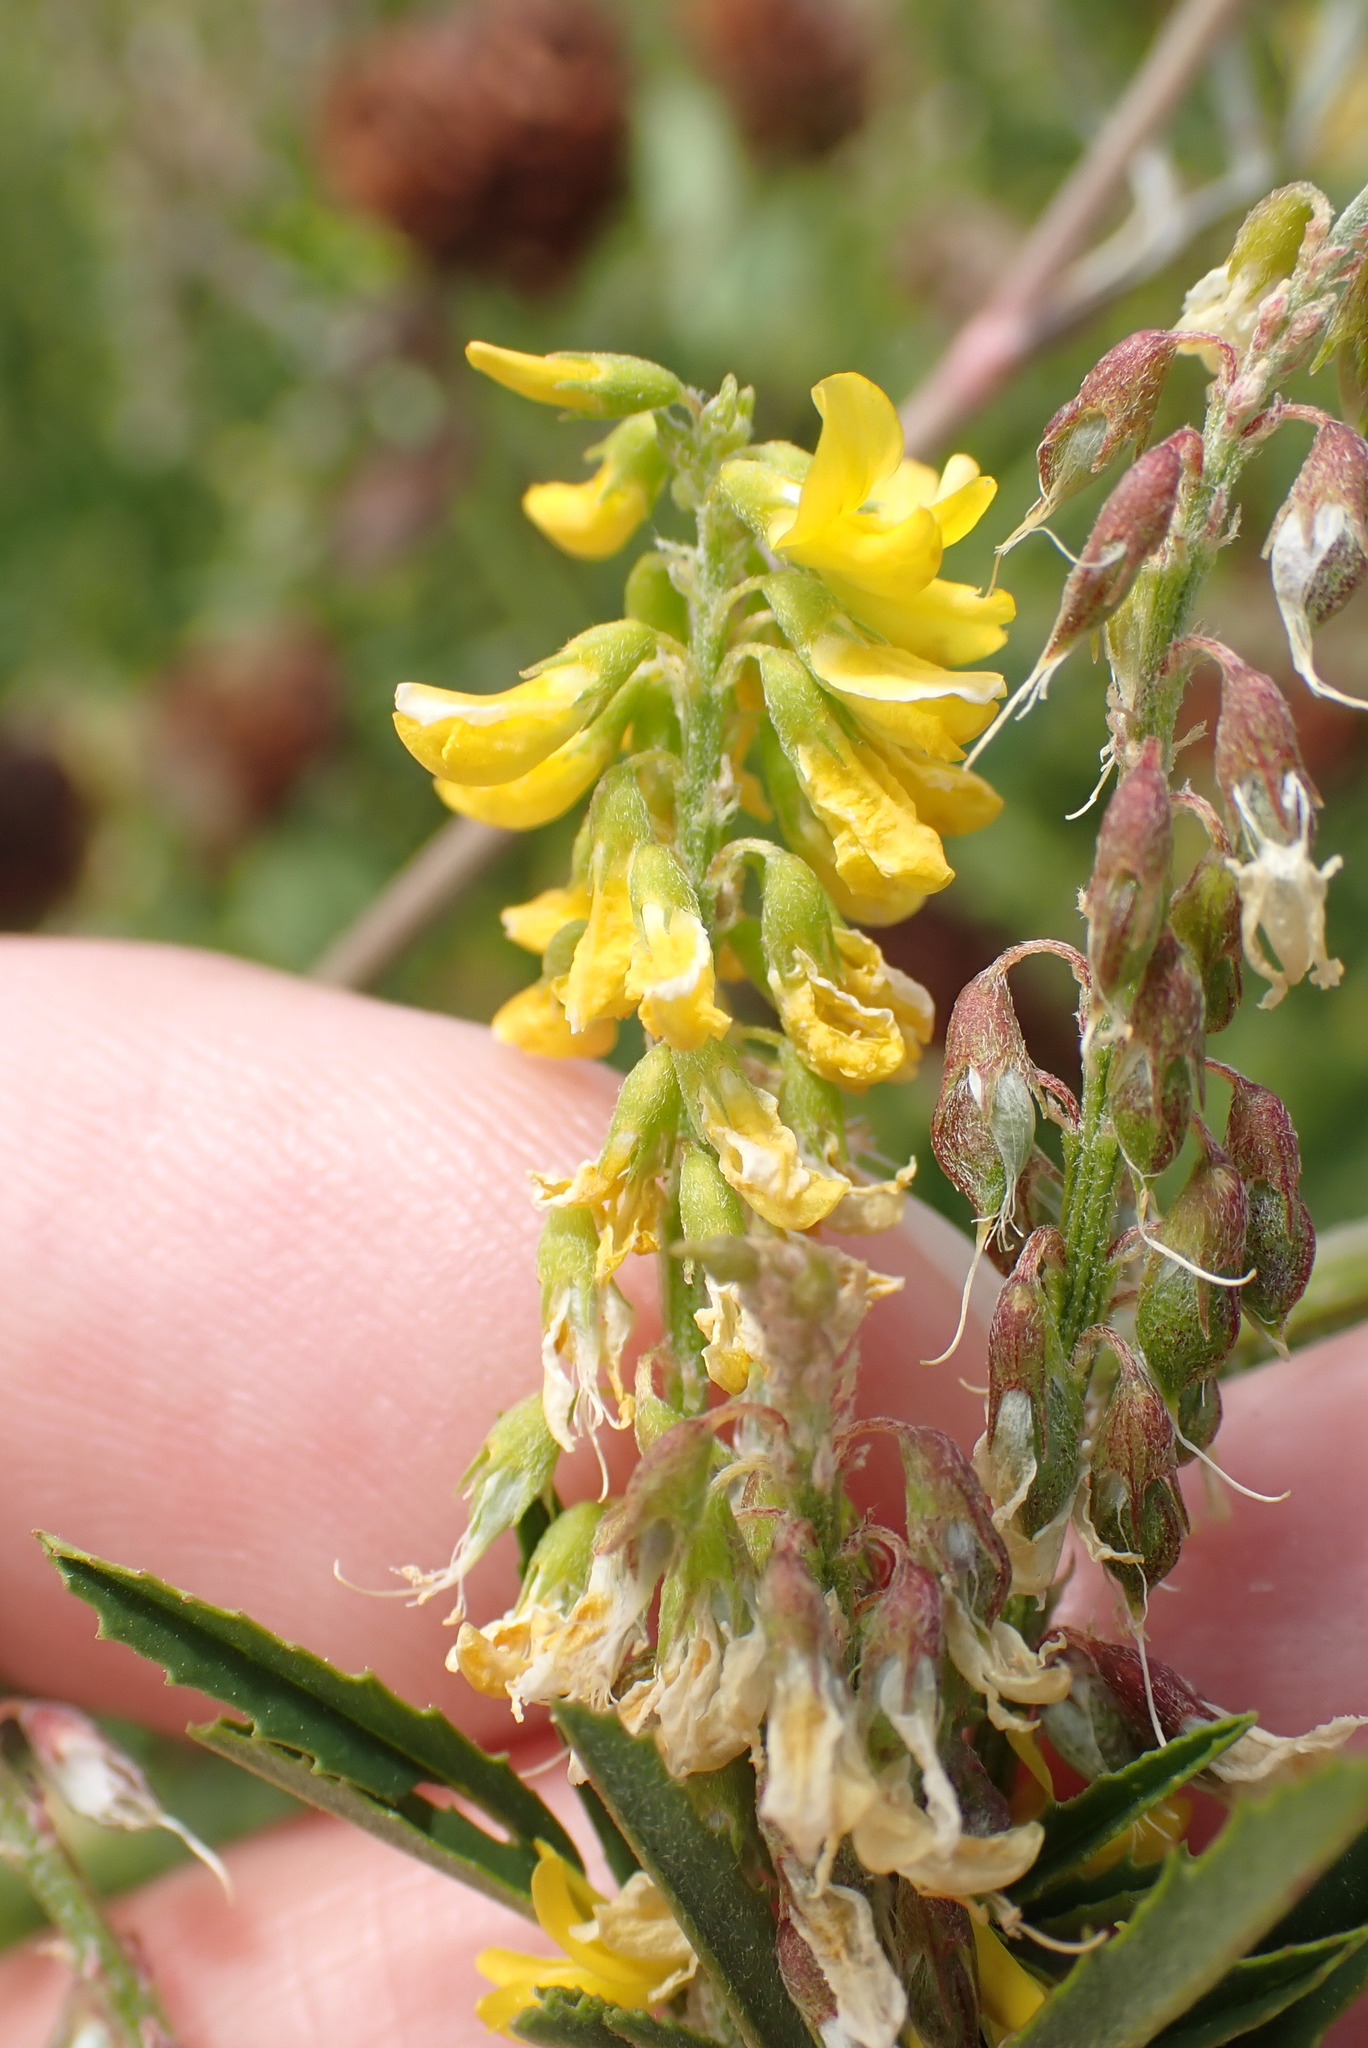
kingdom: Plantae
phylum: Tracheophyta
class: Magnoliopsida
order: Fabales
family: Fabaceae
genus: Melilotus
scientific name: Melilotus altissimus
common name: Tall melilot
